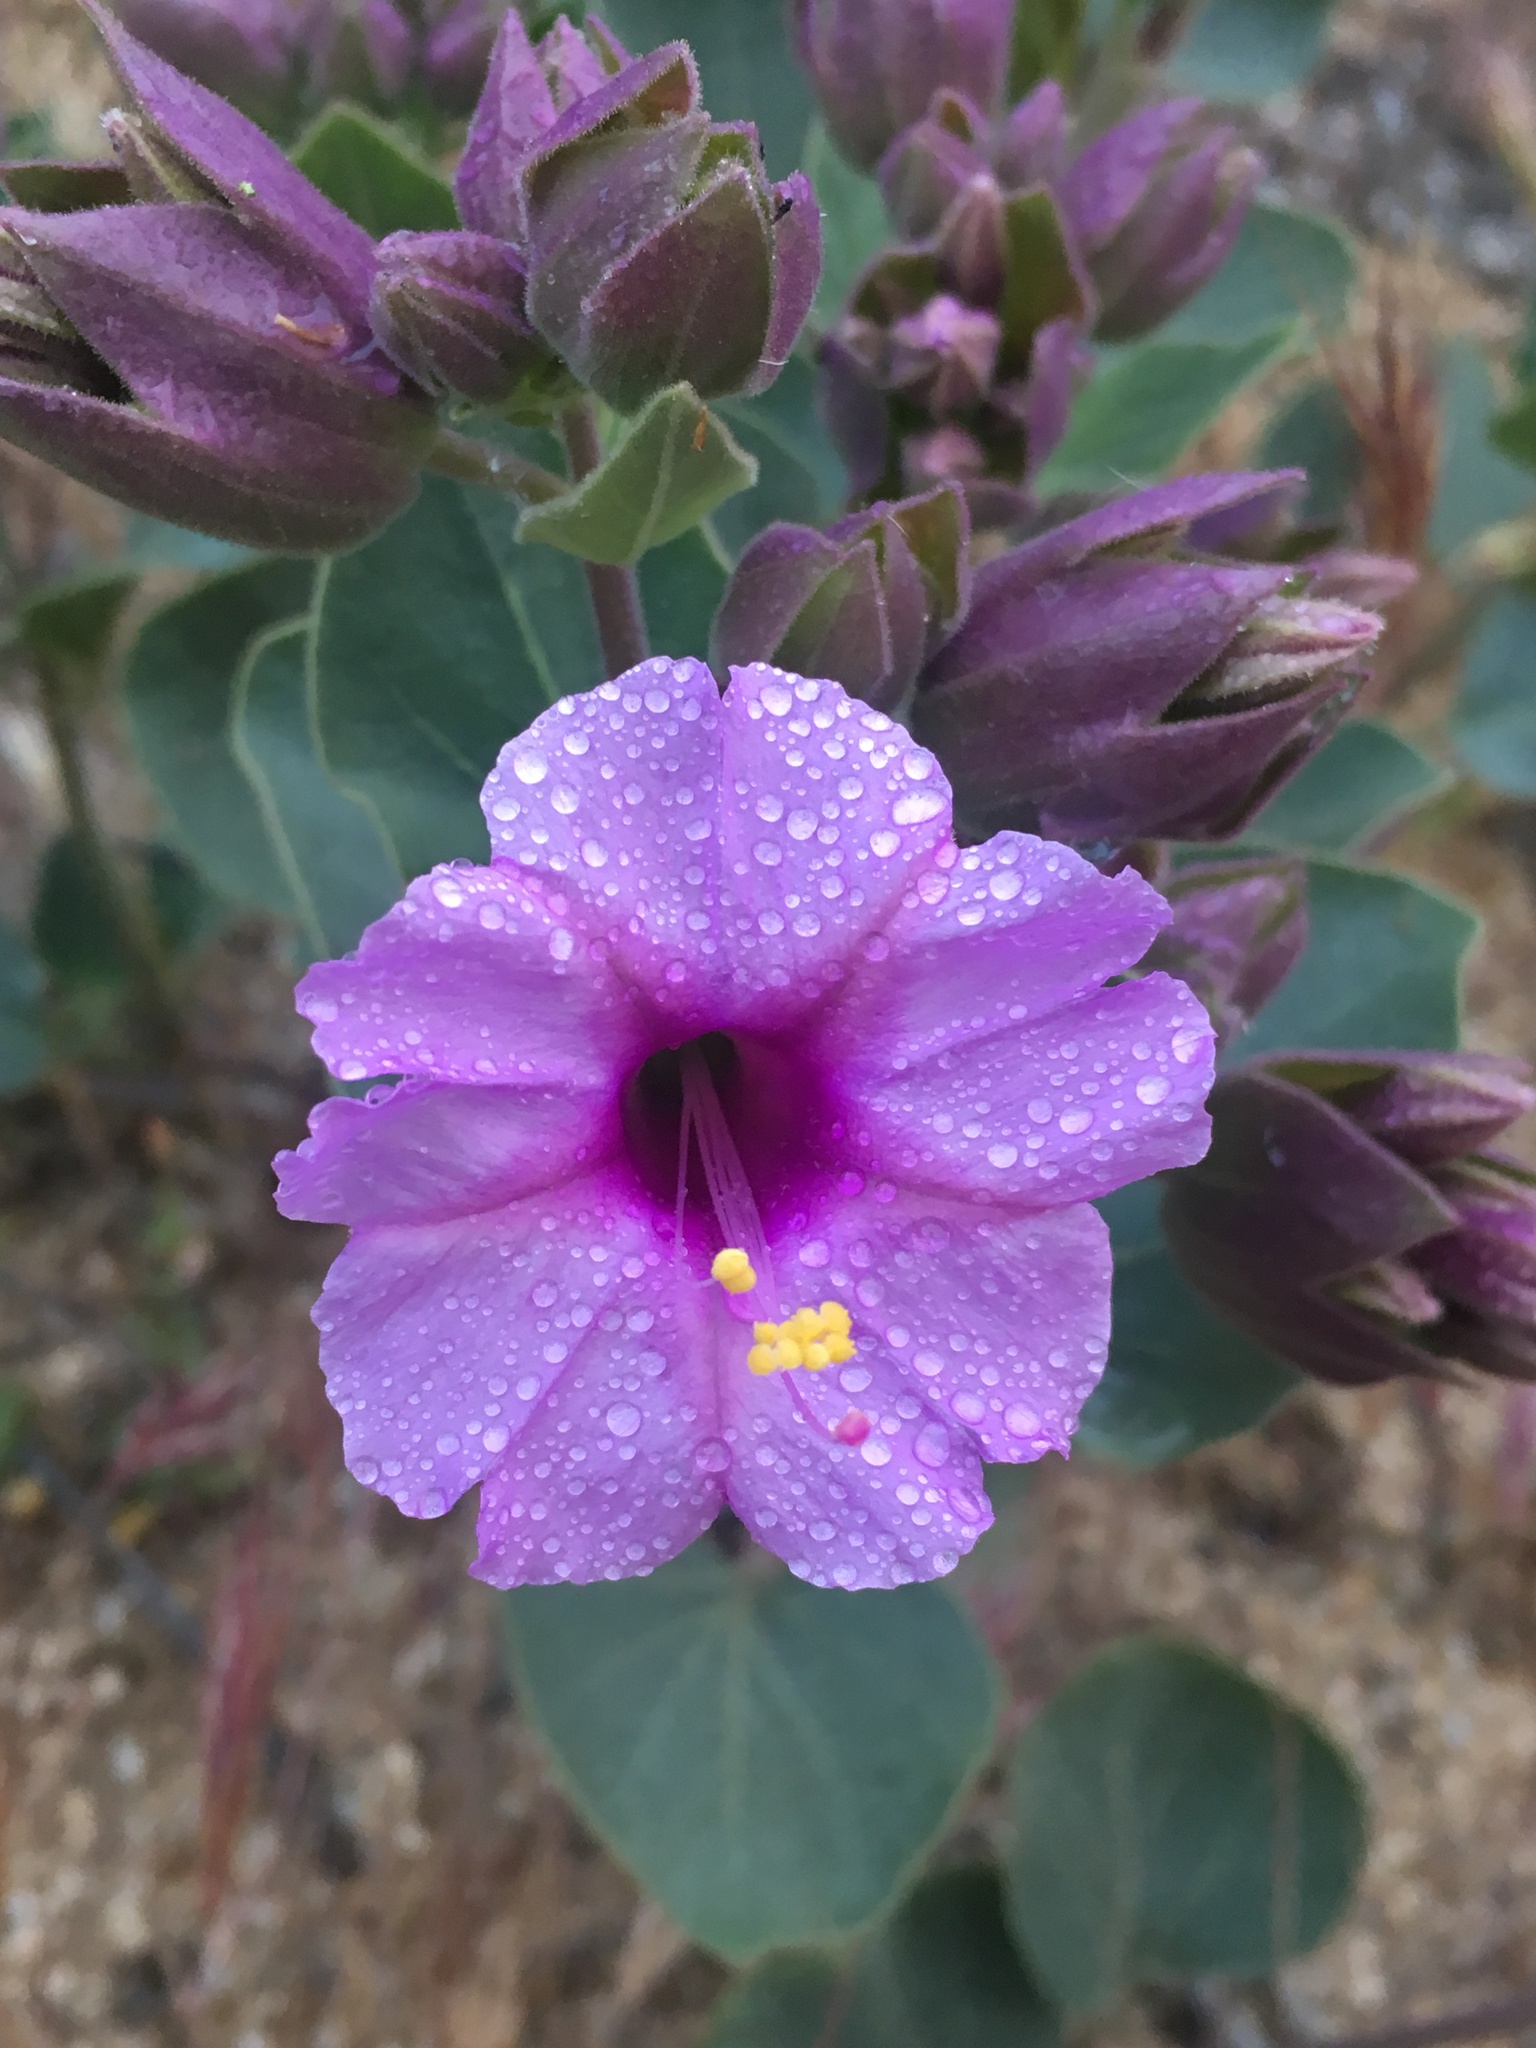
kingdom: Plantae
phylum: Tracheophyta
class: Magnoliopsida
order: Caryophyllales
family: Nyctaginaceae
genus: Mirabilis
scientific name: Mirabilis multiflora
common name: Froebel's four-o'clock
